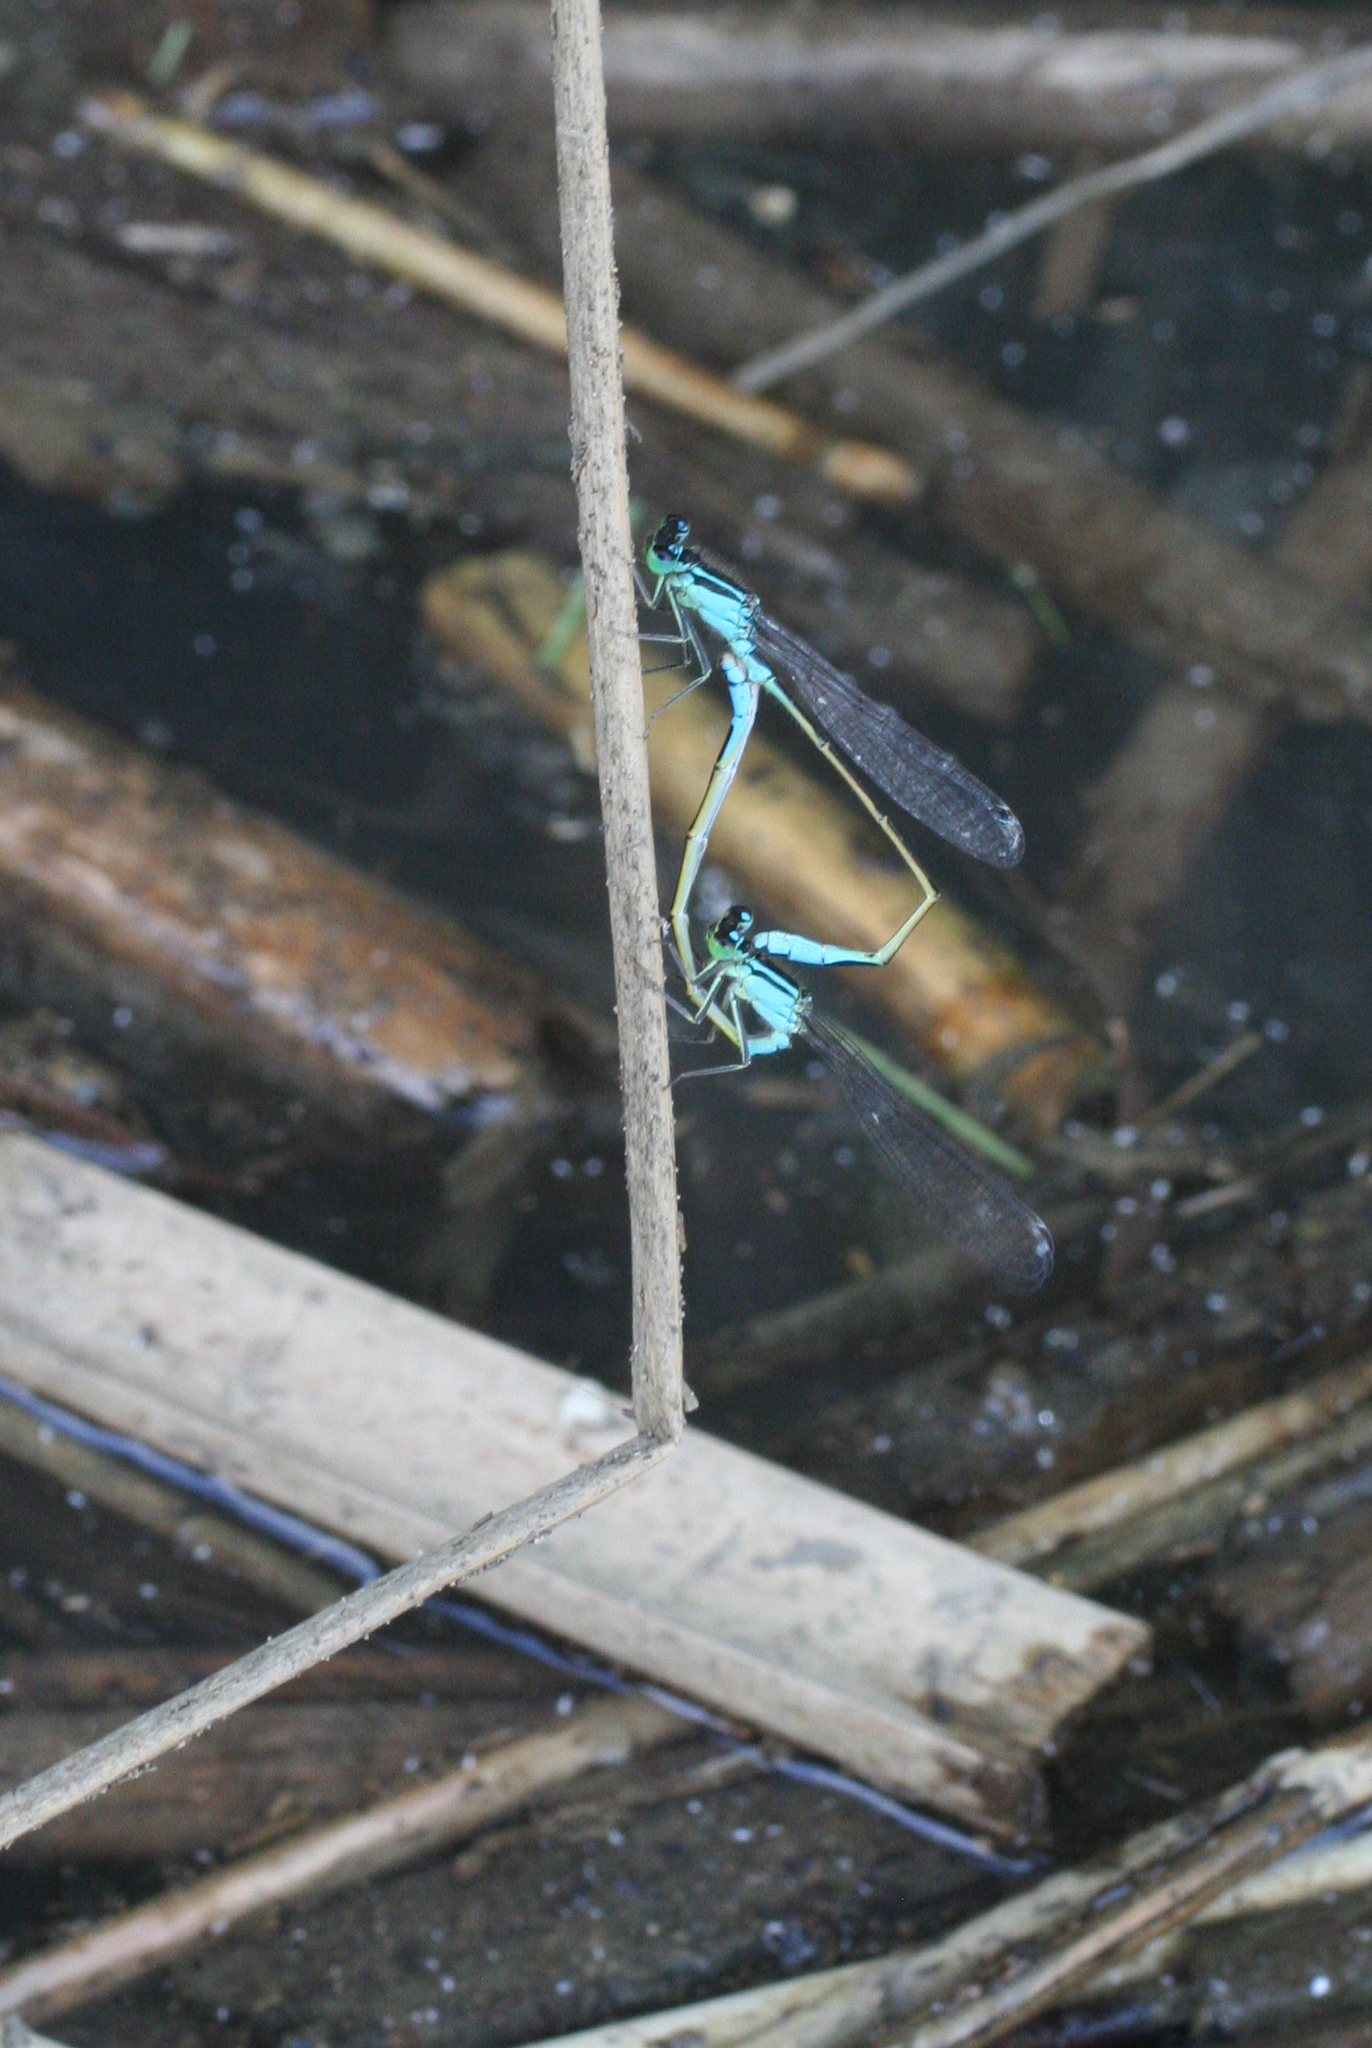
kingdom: Animalia
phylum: Arthropoda
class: Insecta
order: Odonata
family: Coenagrionidae
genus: Ischnura
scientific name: Ischnura elegans
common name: Blue-tailed damselfly
